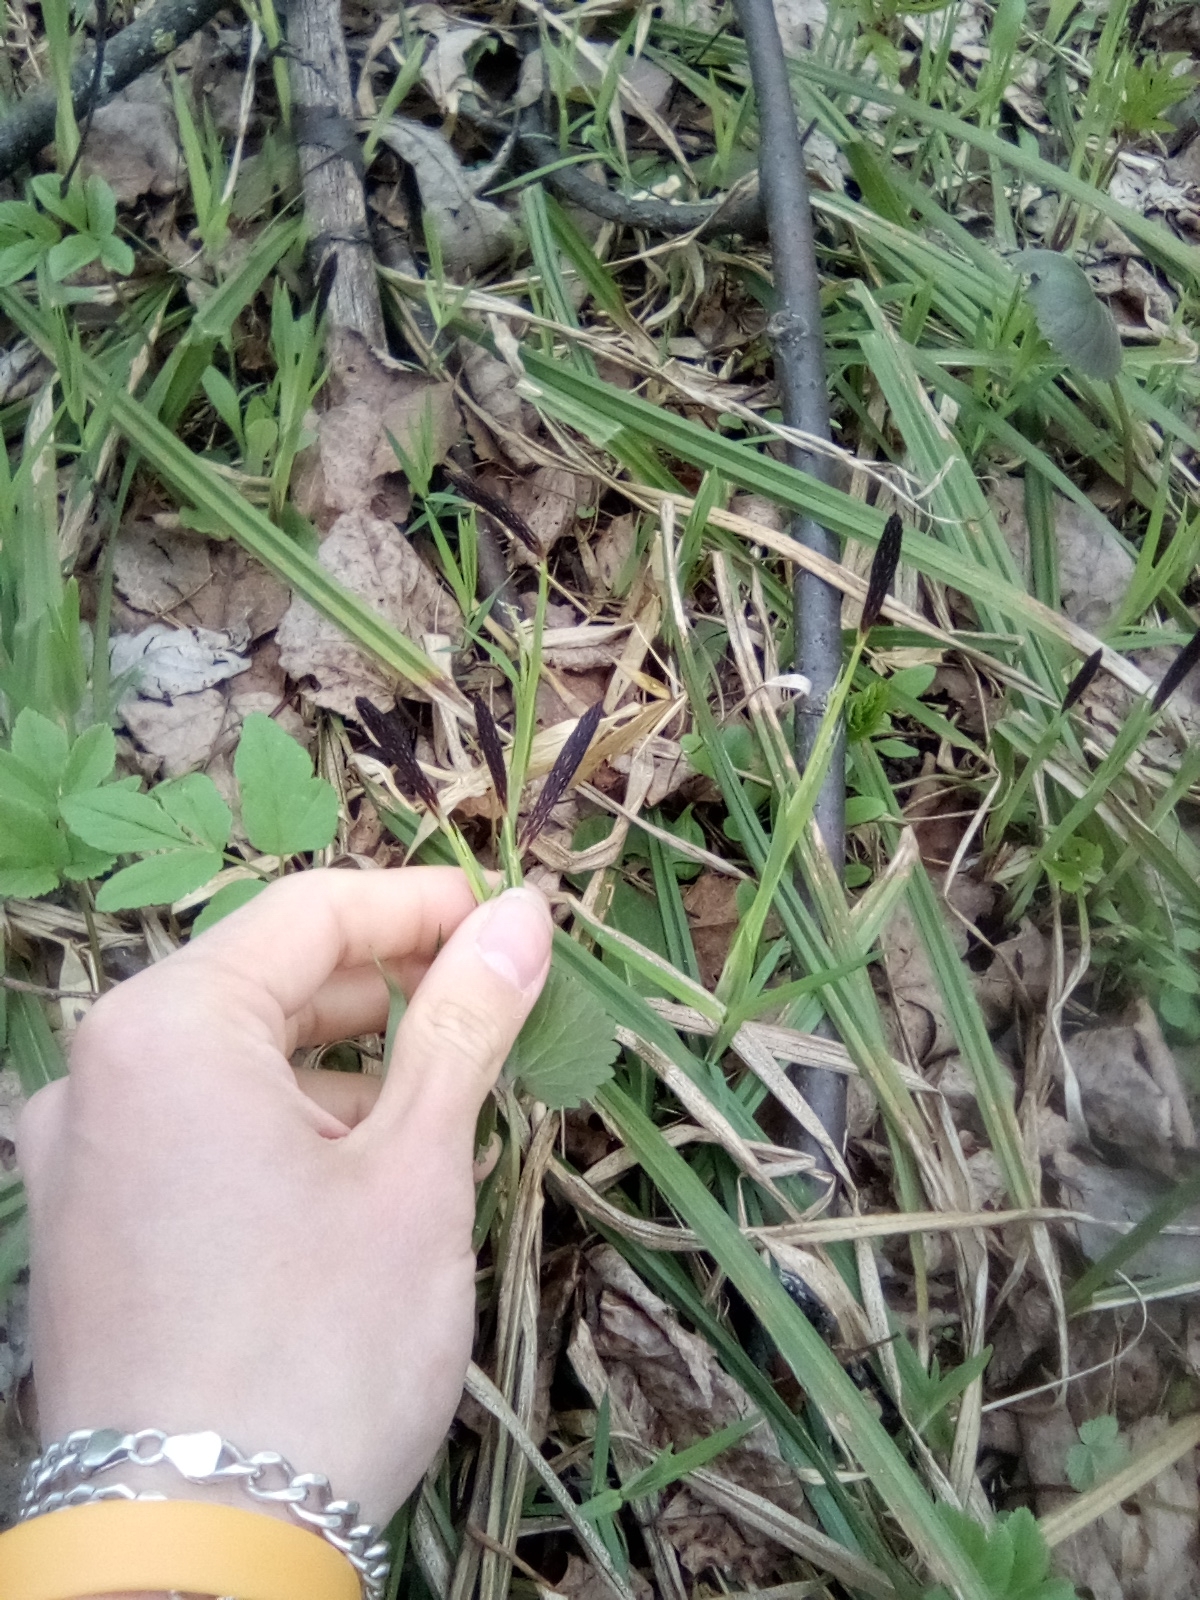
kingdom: Plantae
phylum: Tracheophyta
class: Liliopsida
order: Poales
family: Cyperaceae
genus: Carex
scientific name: Carex pilosa
